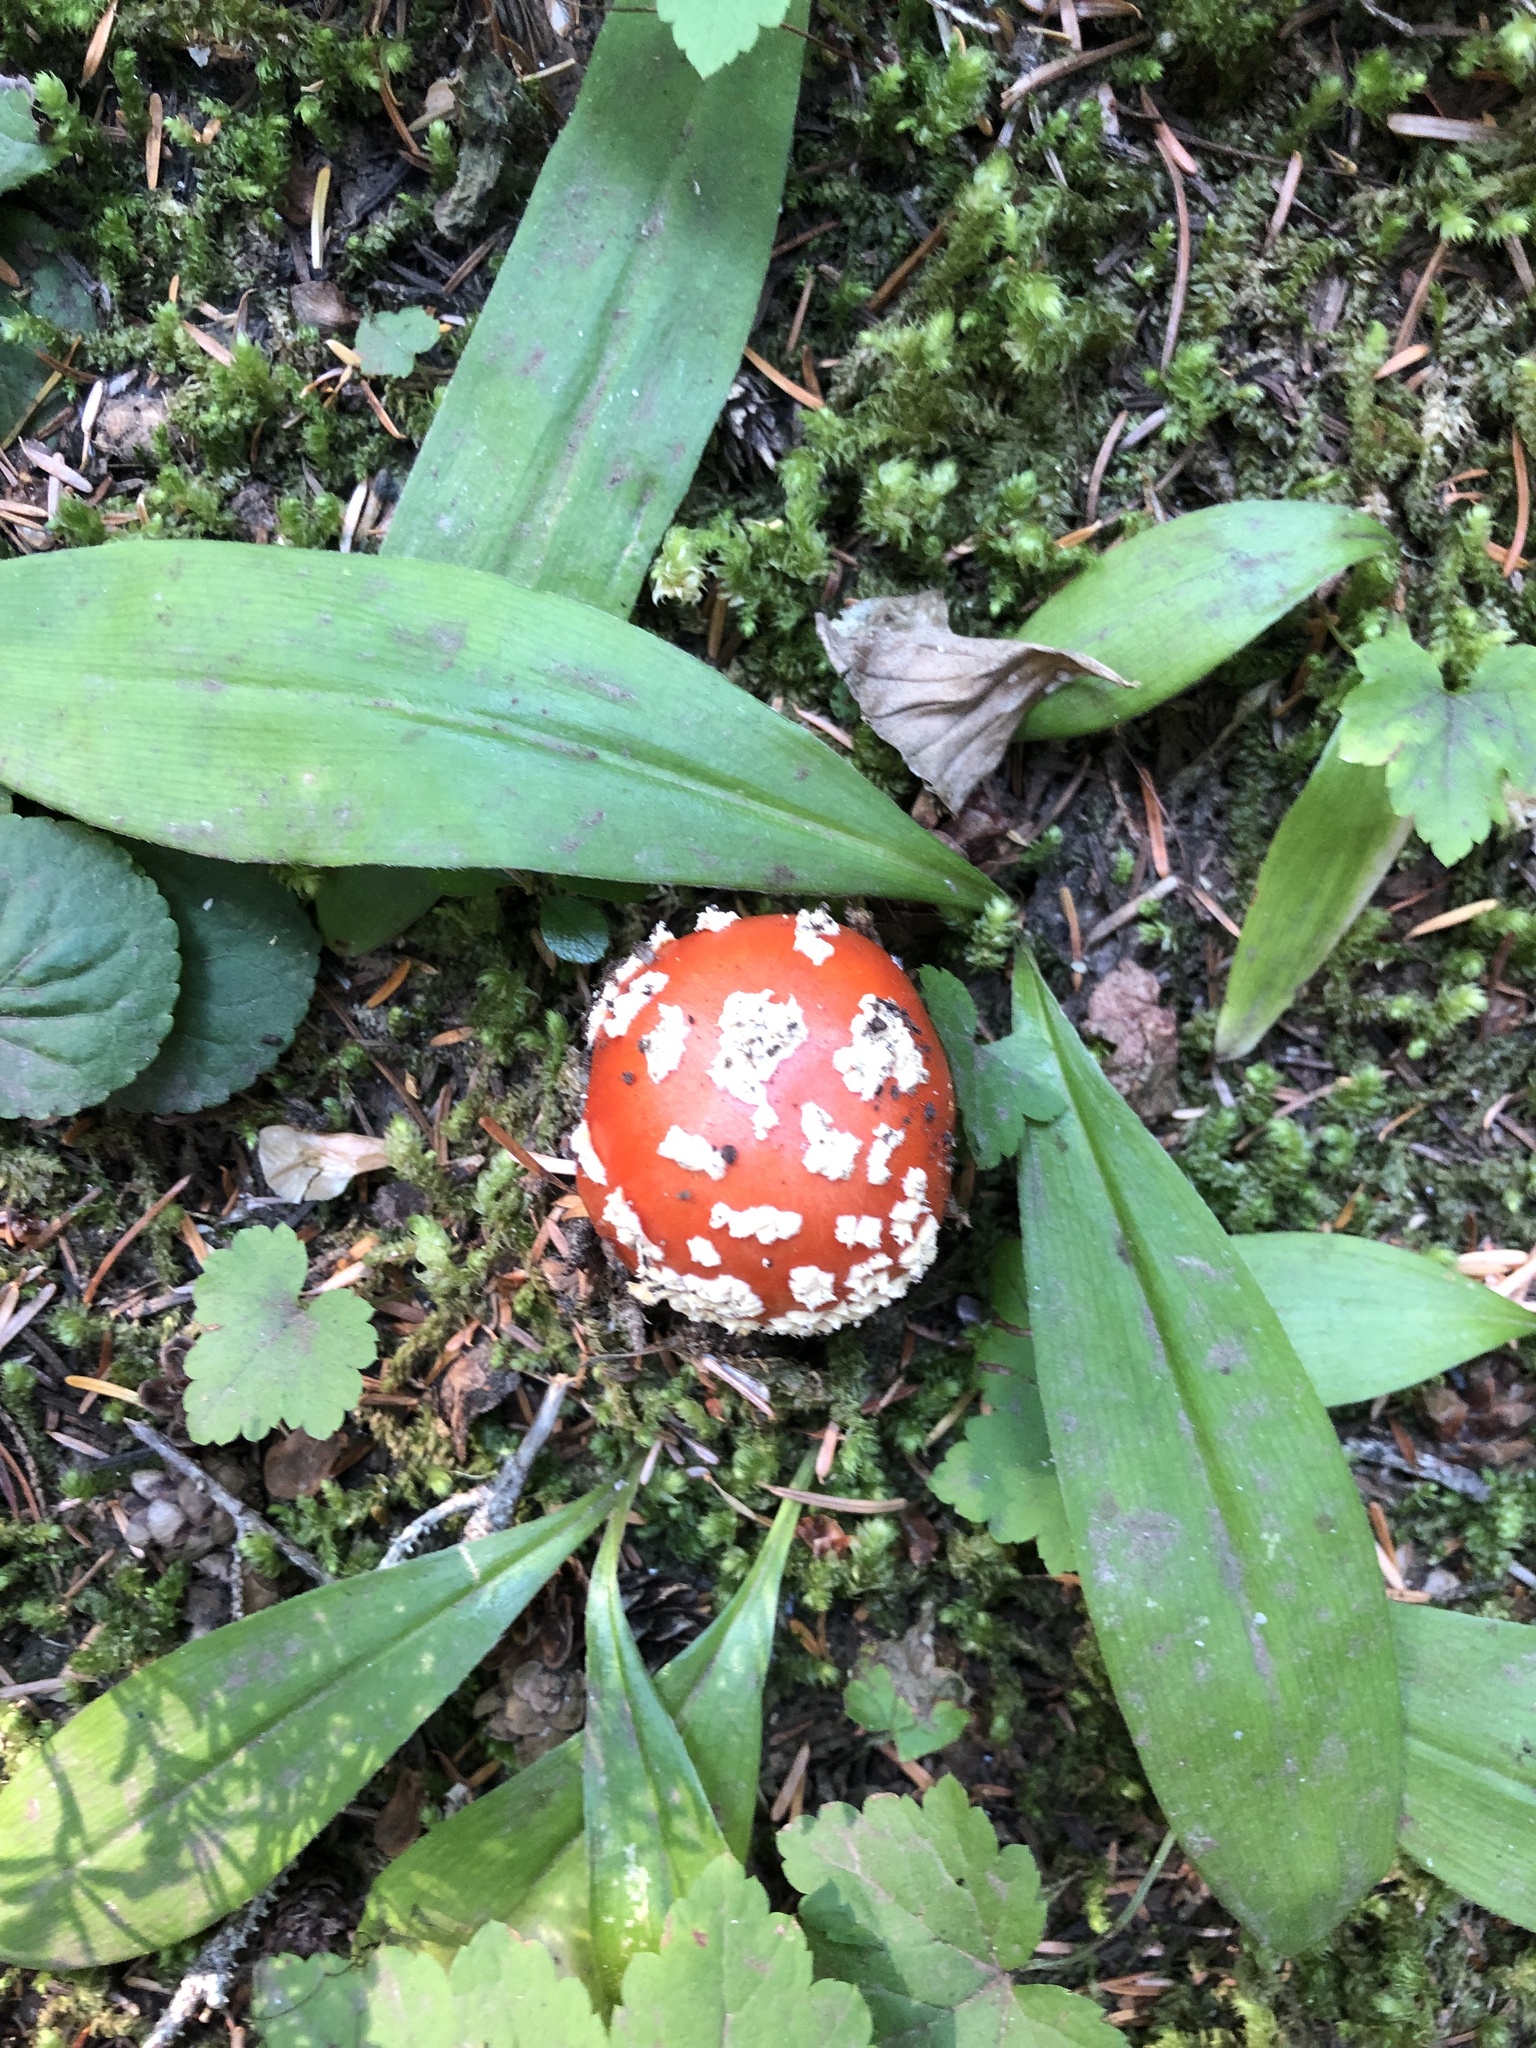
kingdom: Fungi
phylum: Basidiomycota
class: Agaricomycetes
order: Agaricales
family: Amanitaceae
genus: Amanita
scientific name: Amanita muscaria
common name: Fly agaric
